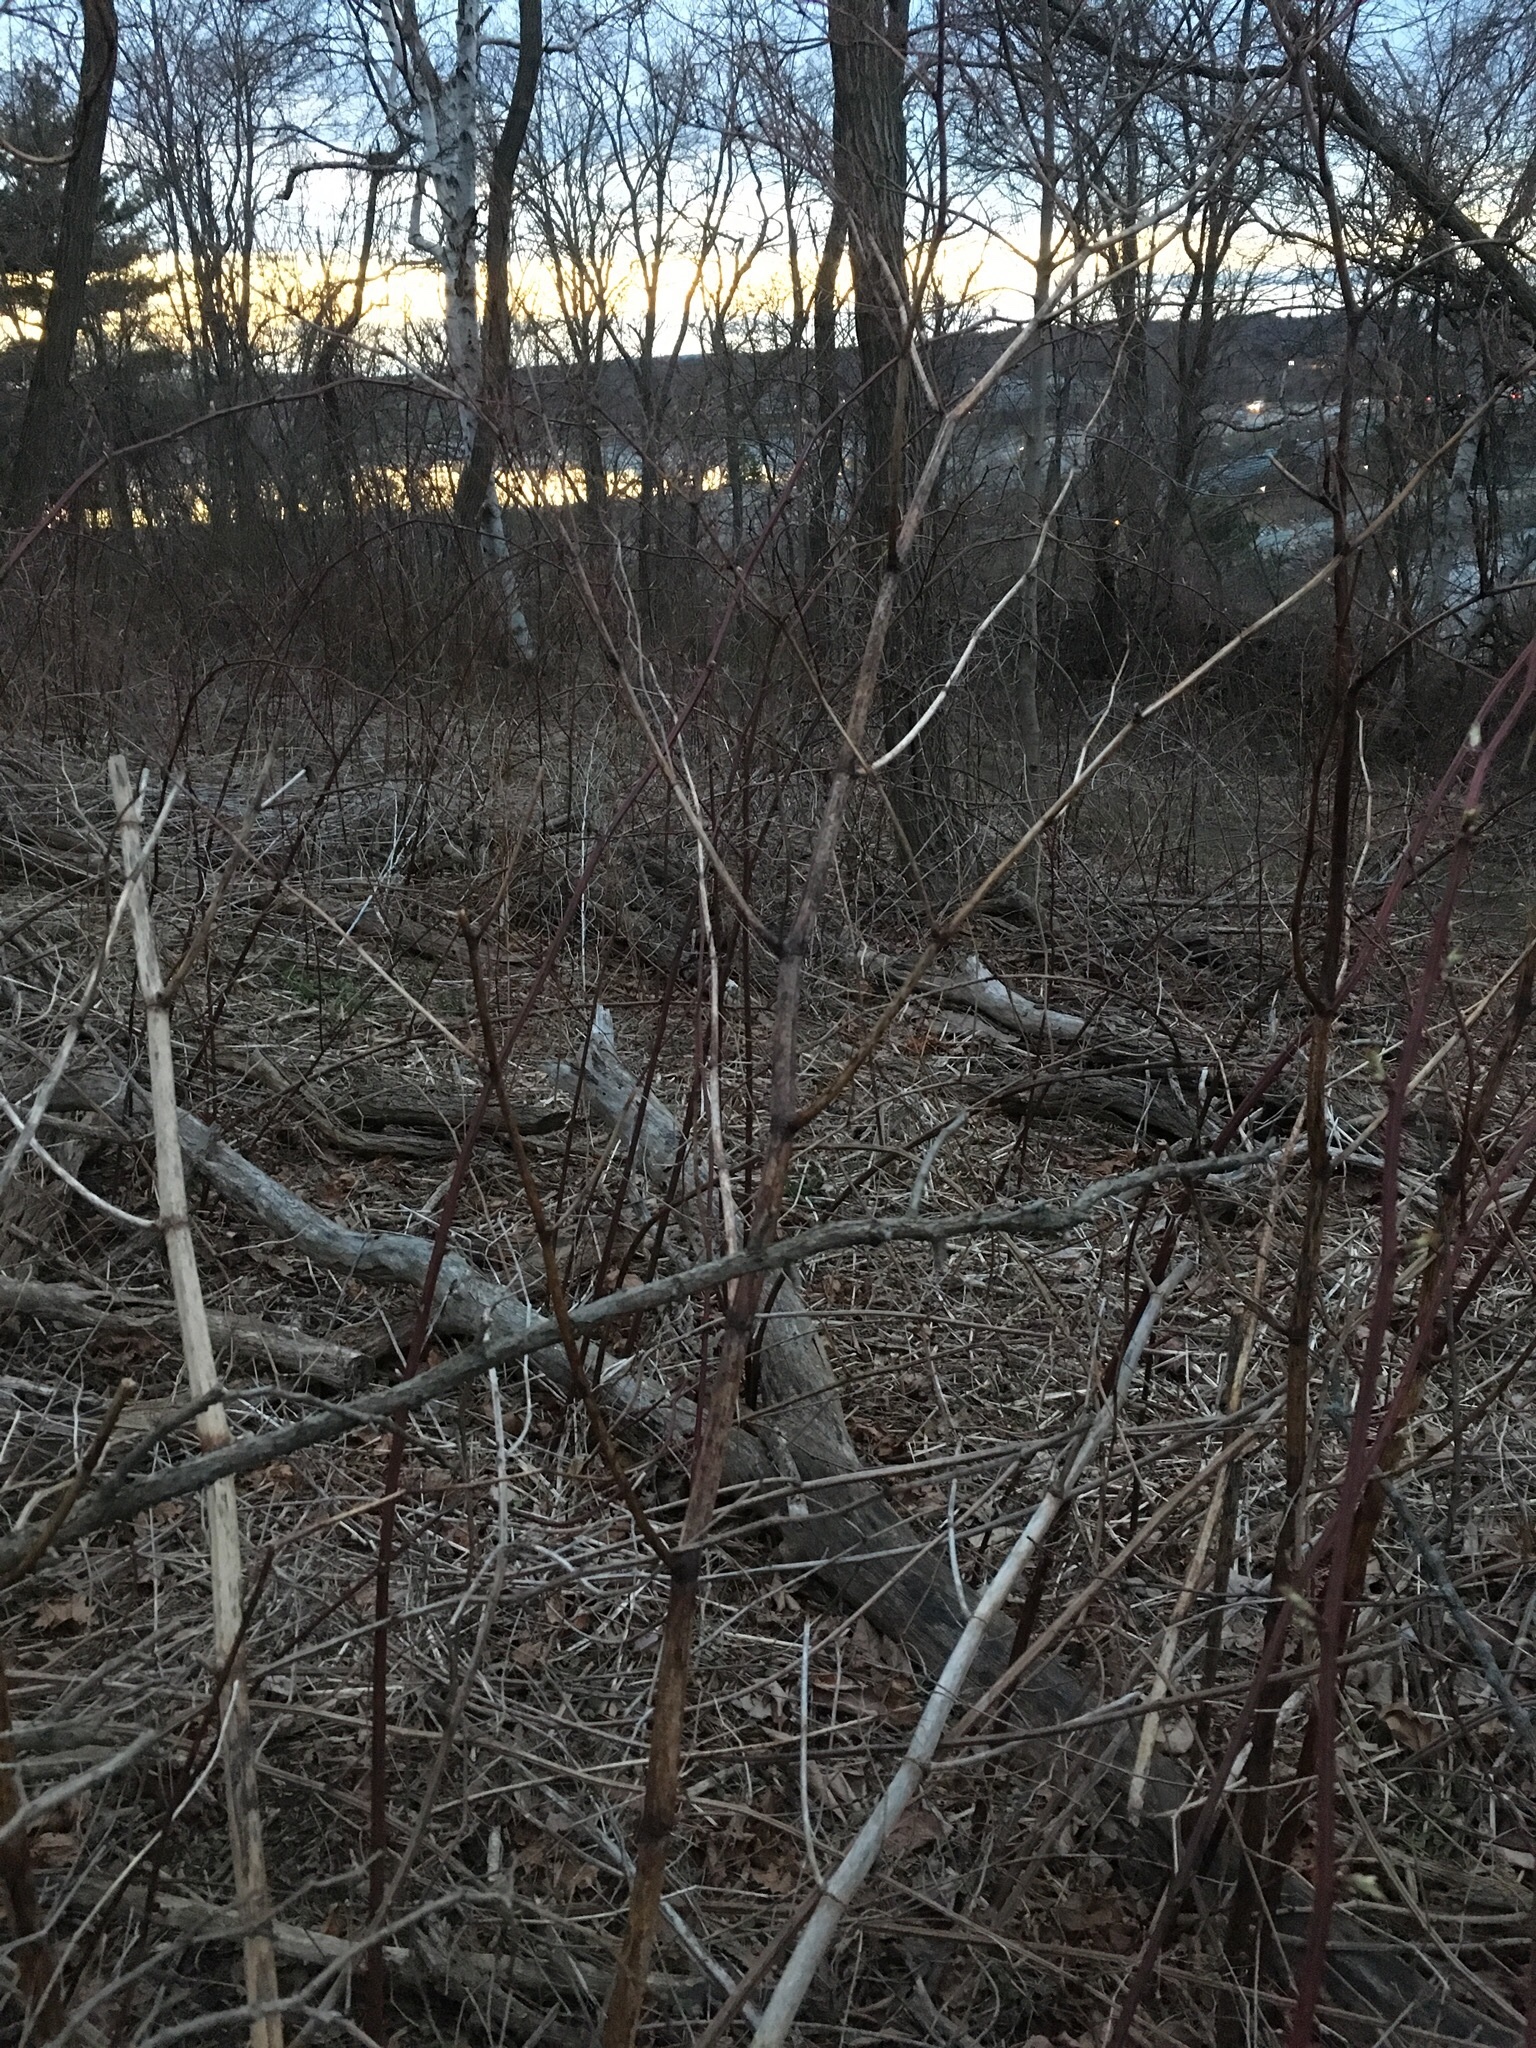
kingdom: Plantae
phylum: Tracheophyta
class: Magnoliopsida
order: Caryophyllales
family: Polygonaceae
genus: Reynoutria
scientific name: Reynoutria japonica
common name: Japanese knotweed
